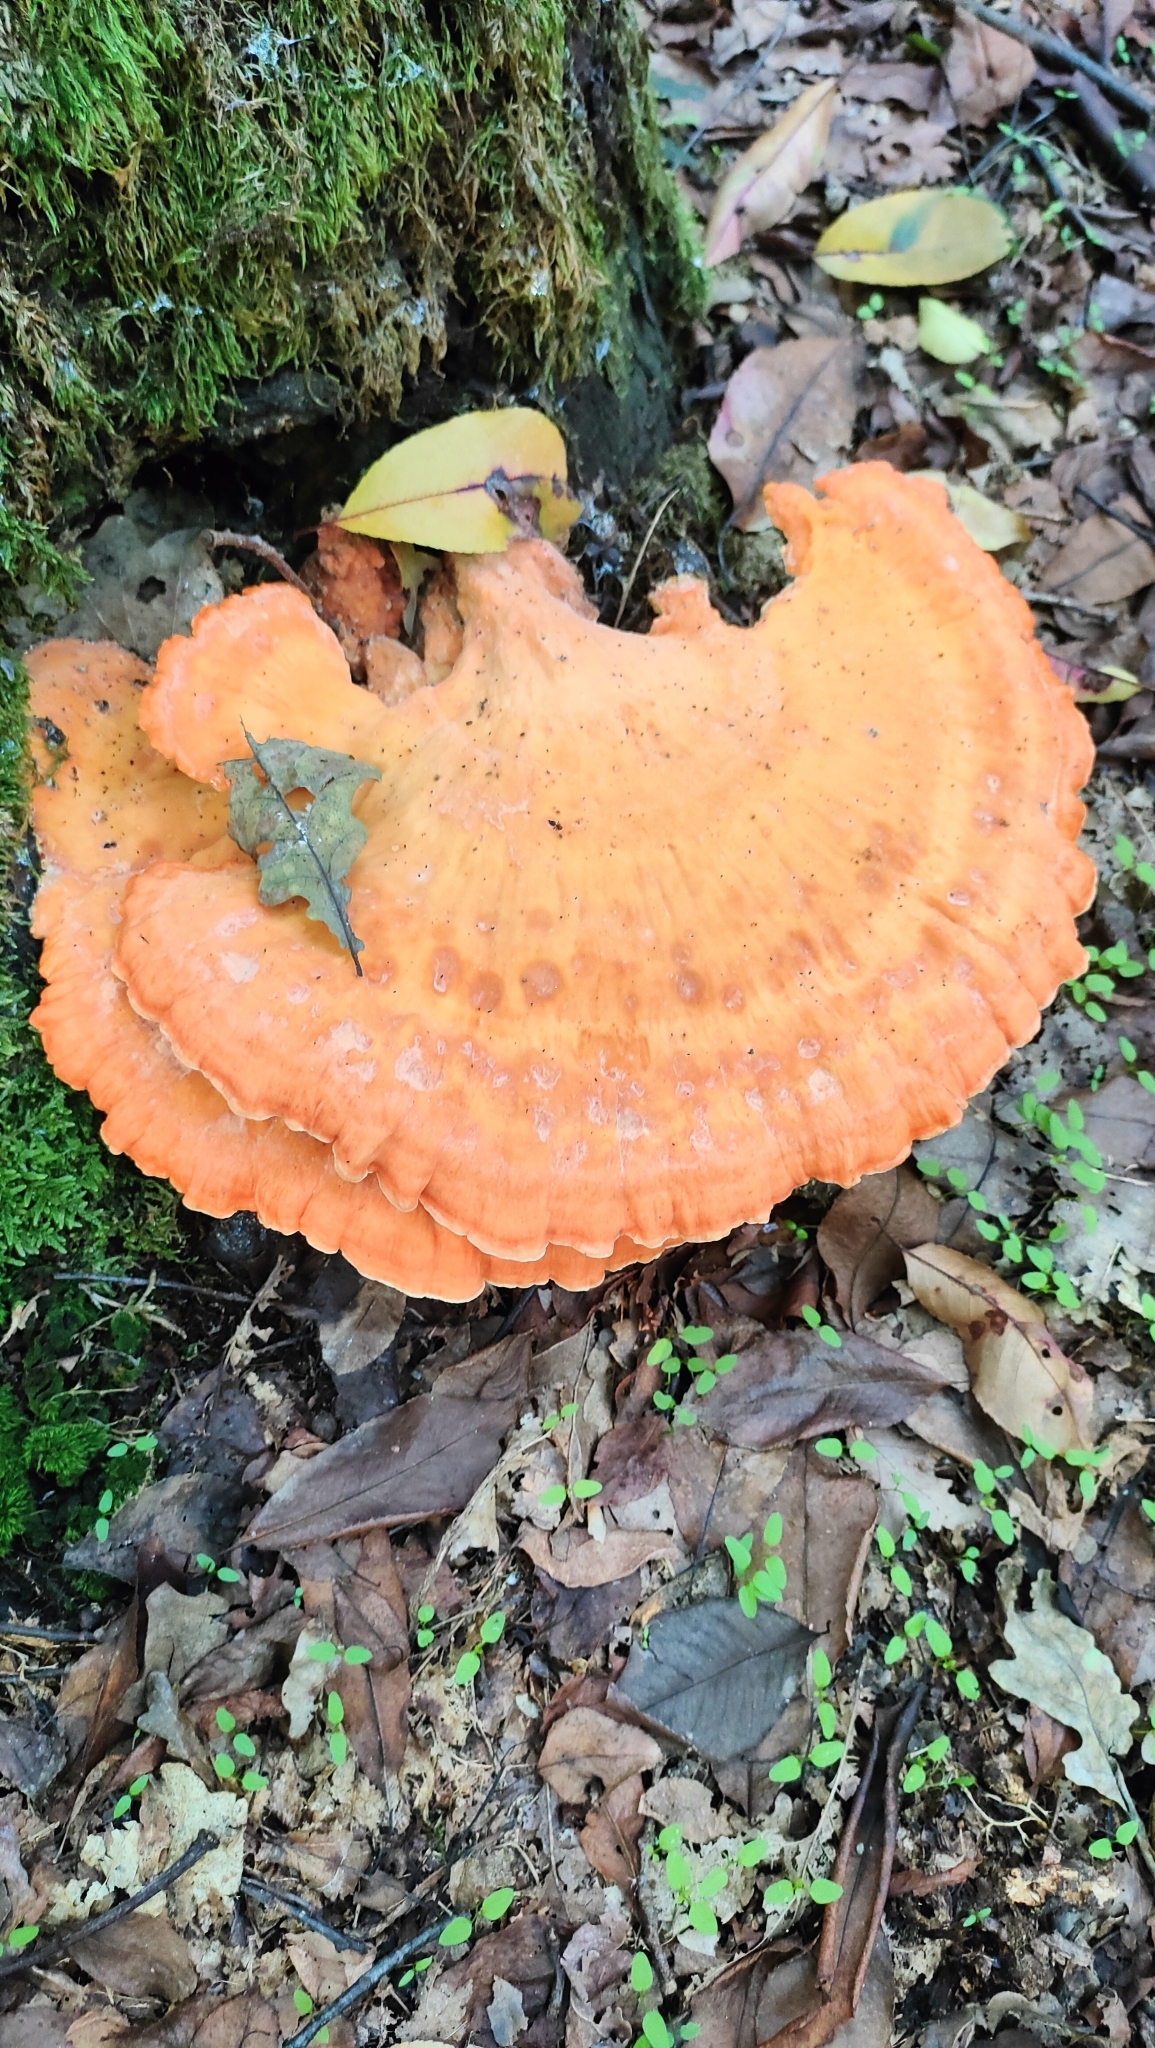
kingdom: Fungi
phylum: Basidiomycota
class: Agaricomycetes
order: Polyporales
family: Laetiporaceae
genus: Laetiporus
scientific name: Laetiporus sulphureus
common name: Chicken of the woods
